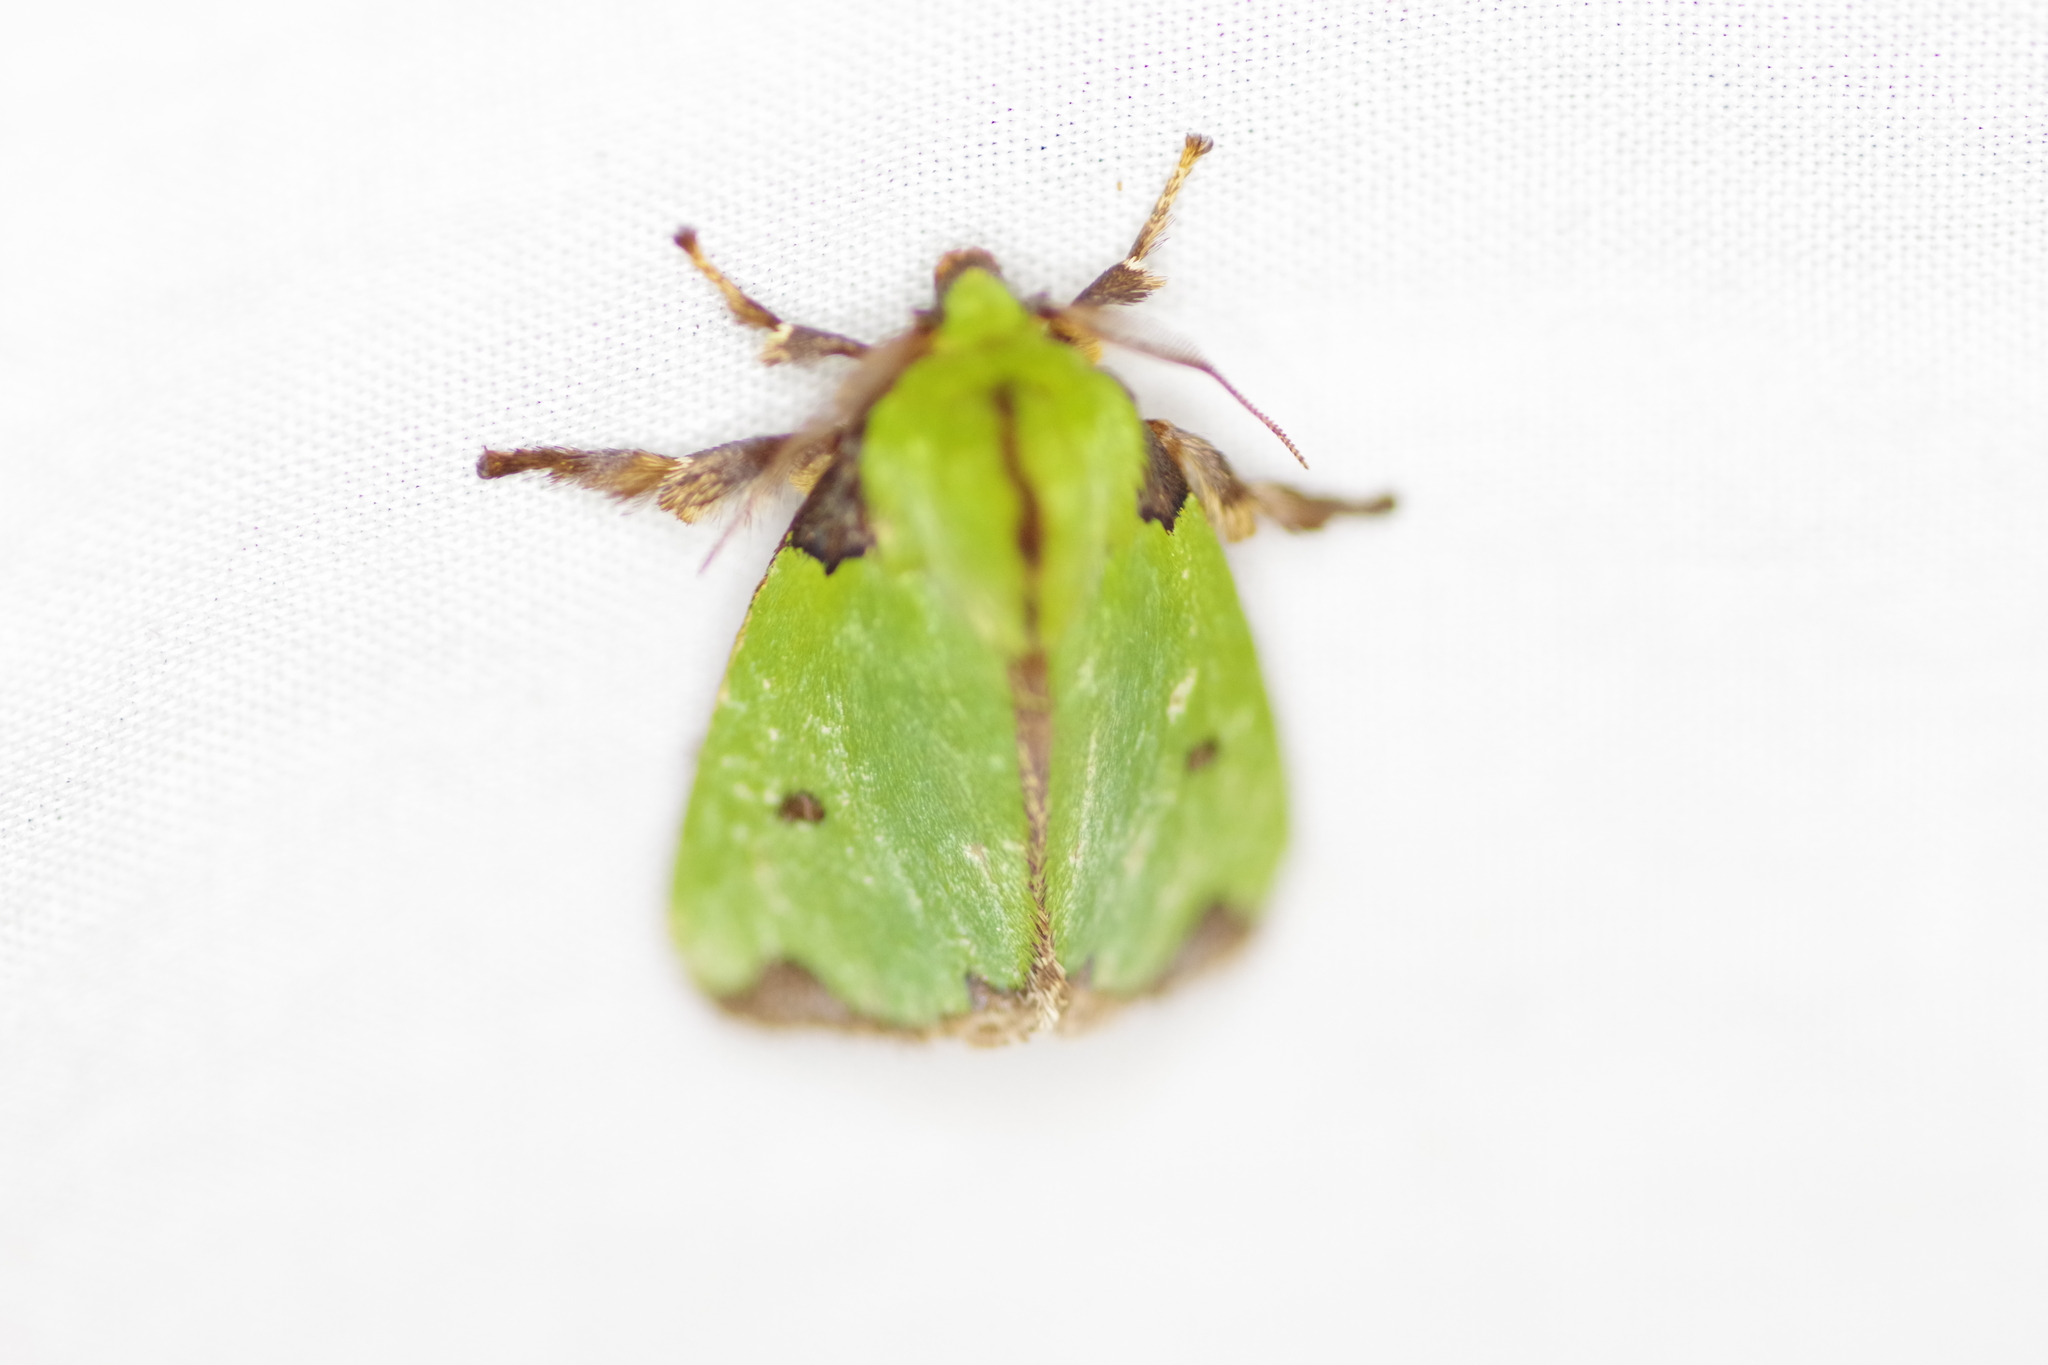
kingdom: Animalia
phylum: Arthropoda
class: Insecta
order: Lepidoptera
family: Limacodidae
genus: Parasa
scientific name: Parasa wellesca
